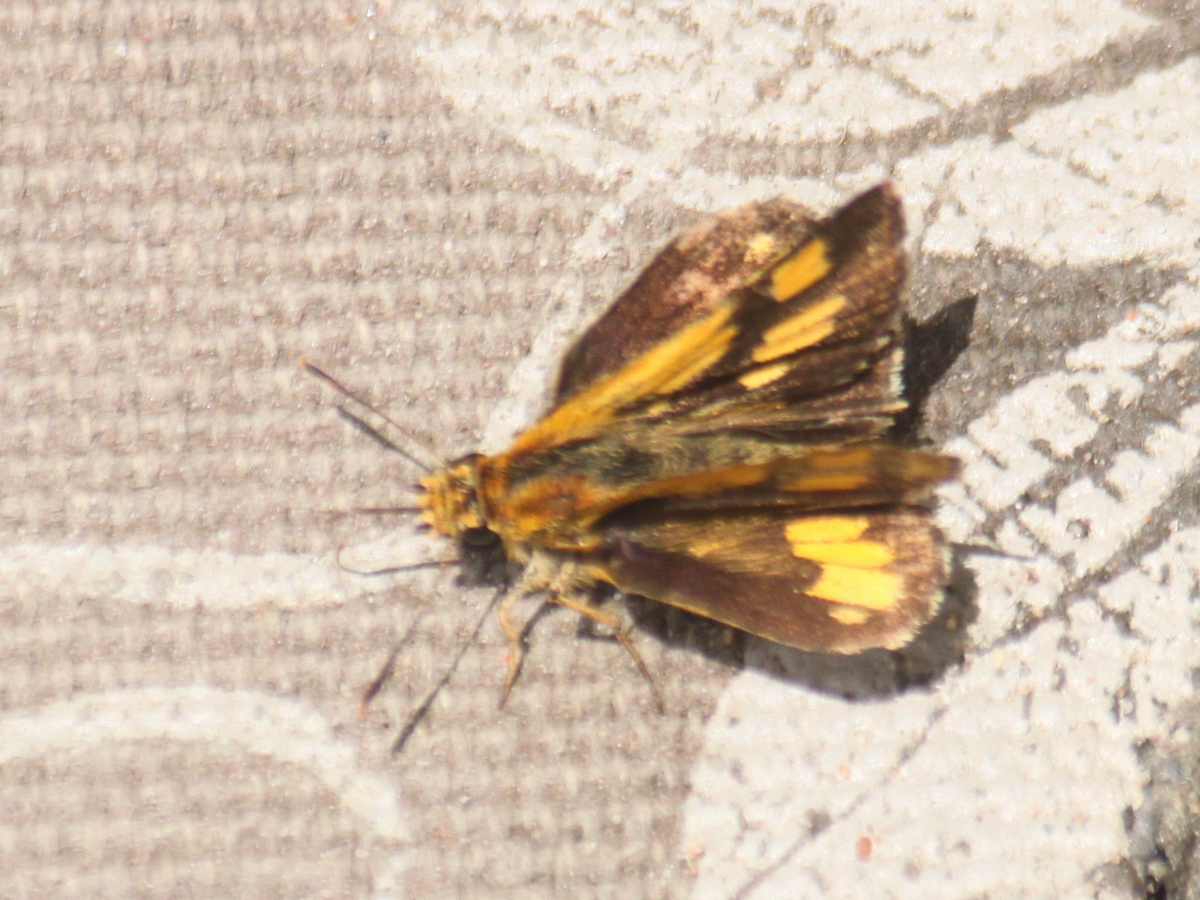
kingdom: Animalia
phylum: Arthropoda
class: Insecta
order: Lepidoptera
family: Hesperiidae
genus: Ampittia
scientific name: Ampittia dioscorides
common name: Common bush hopper
